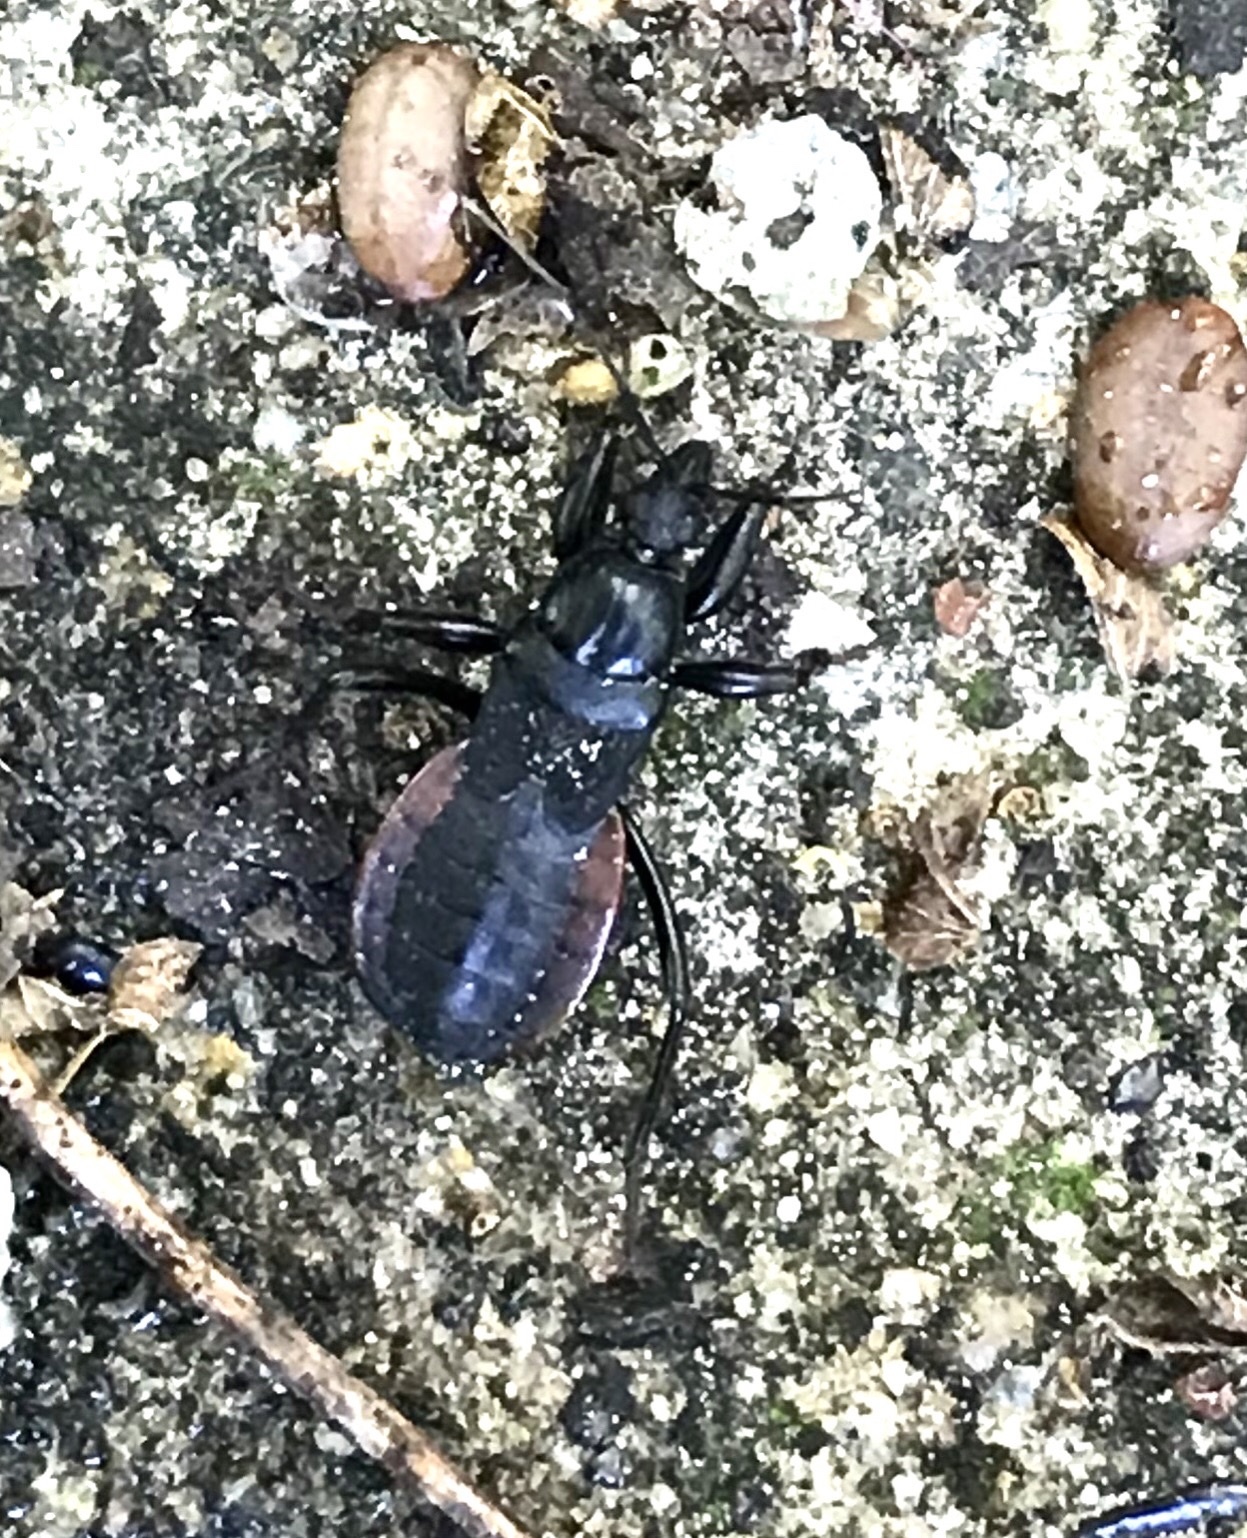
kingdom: Animalia
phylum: Arthropoda
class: Insecta
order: Hemiptera
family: Reduviidae
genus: Melanolestes
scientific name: Melanolestes picipes
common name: Assassin bug
